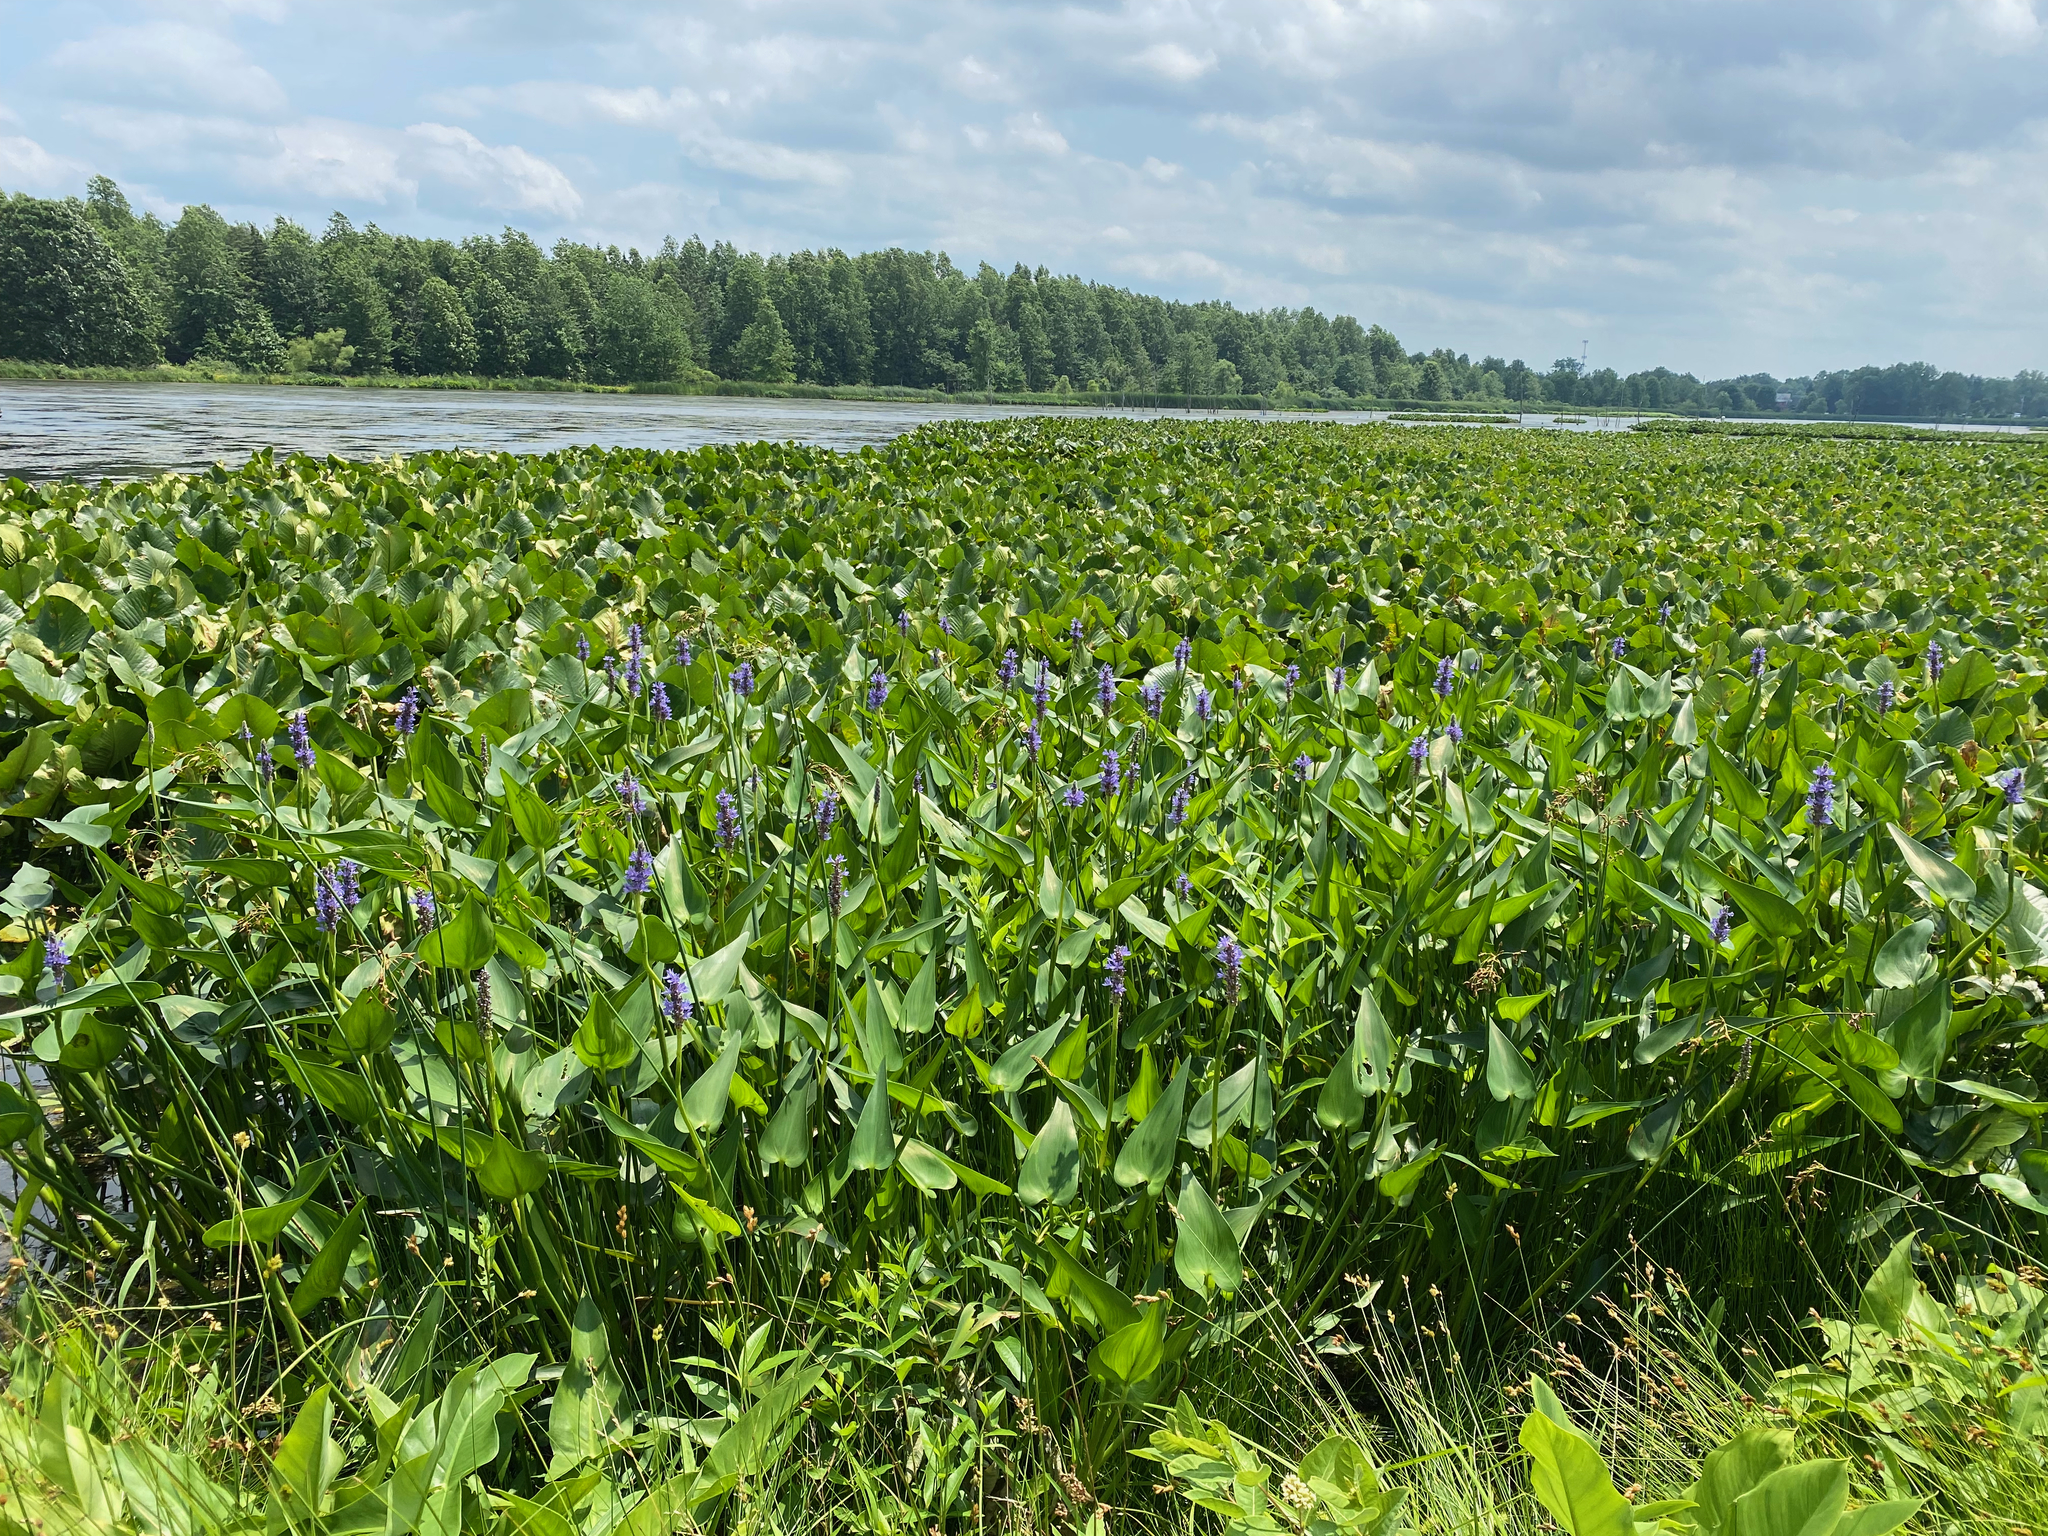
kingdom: Plantae
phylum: Tracheophyta
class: Liliopsida
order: Commelinales
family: Pontederiaceae
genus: Pontederia
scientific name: Pontederia cordata
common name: Pickerelweed
